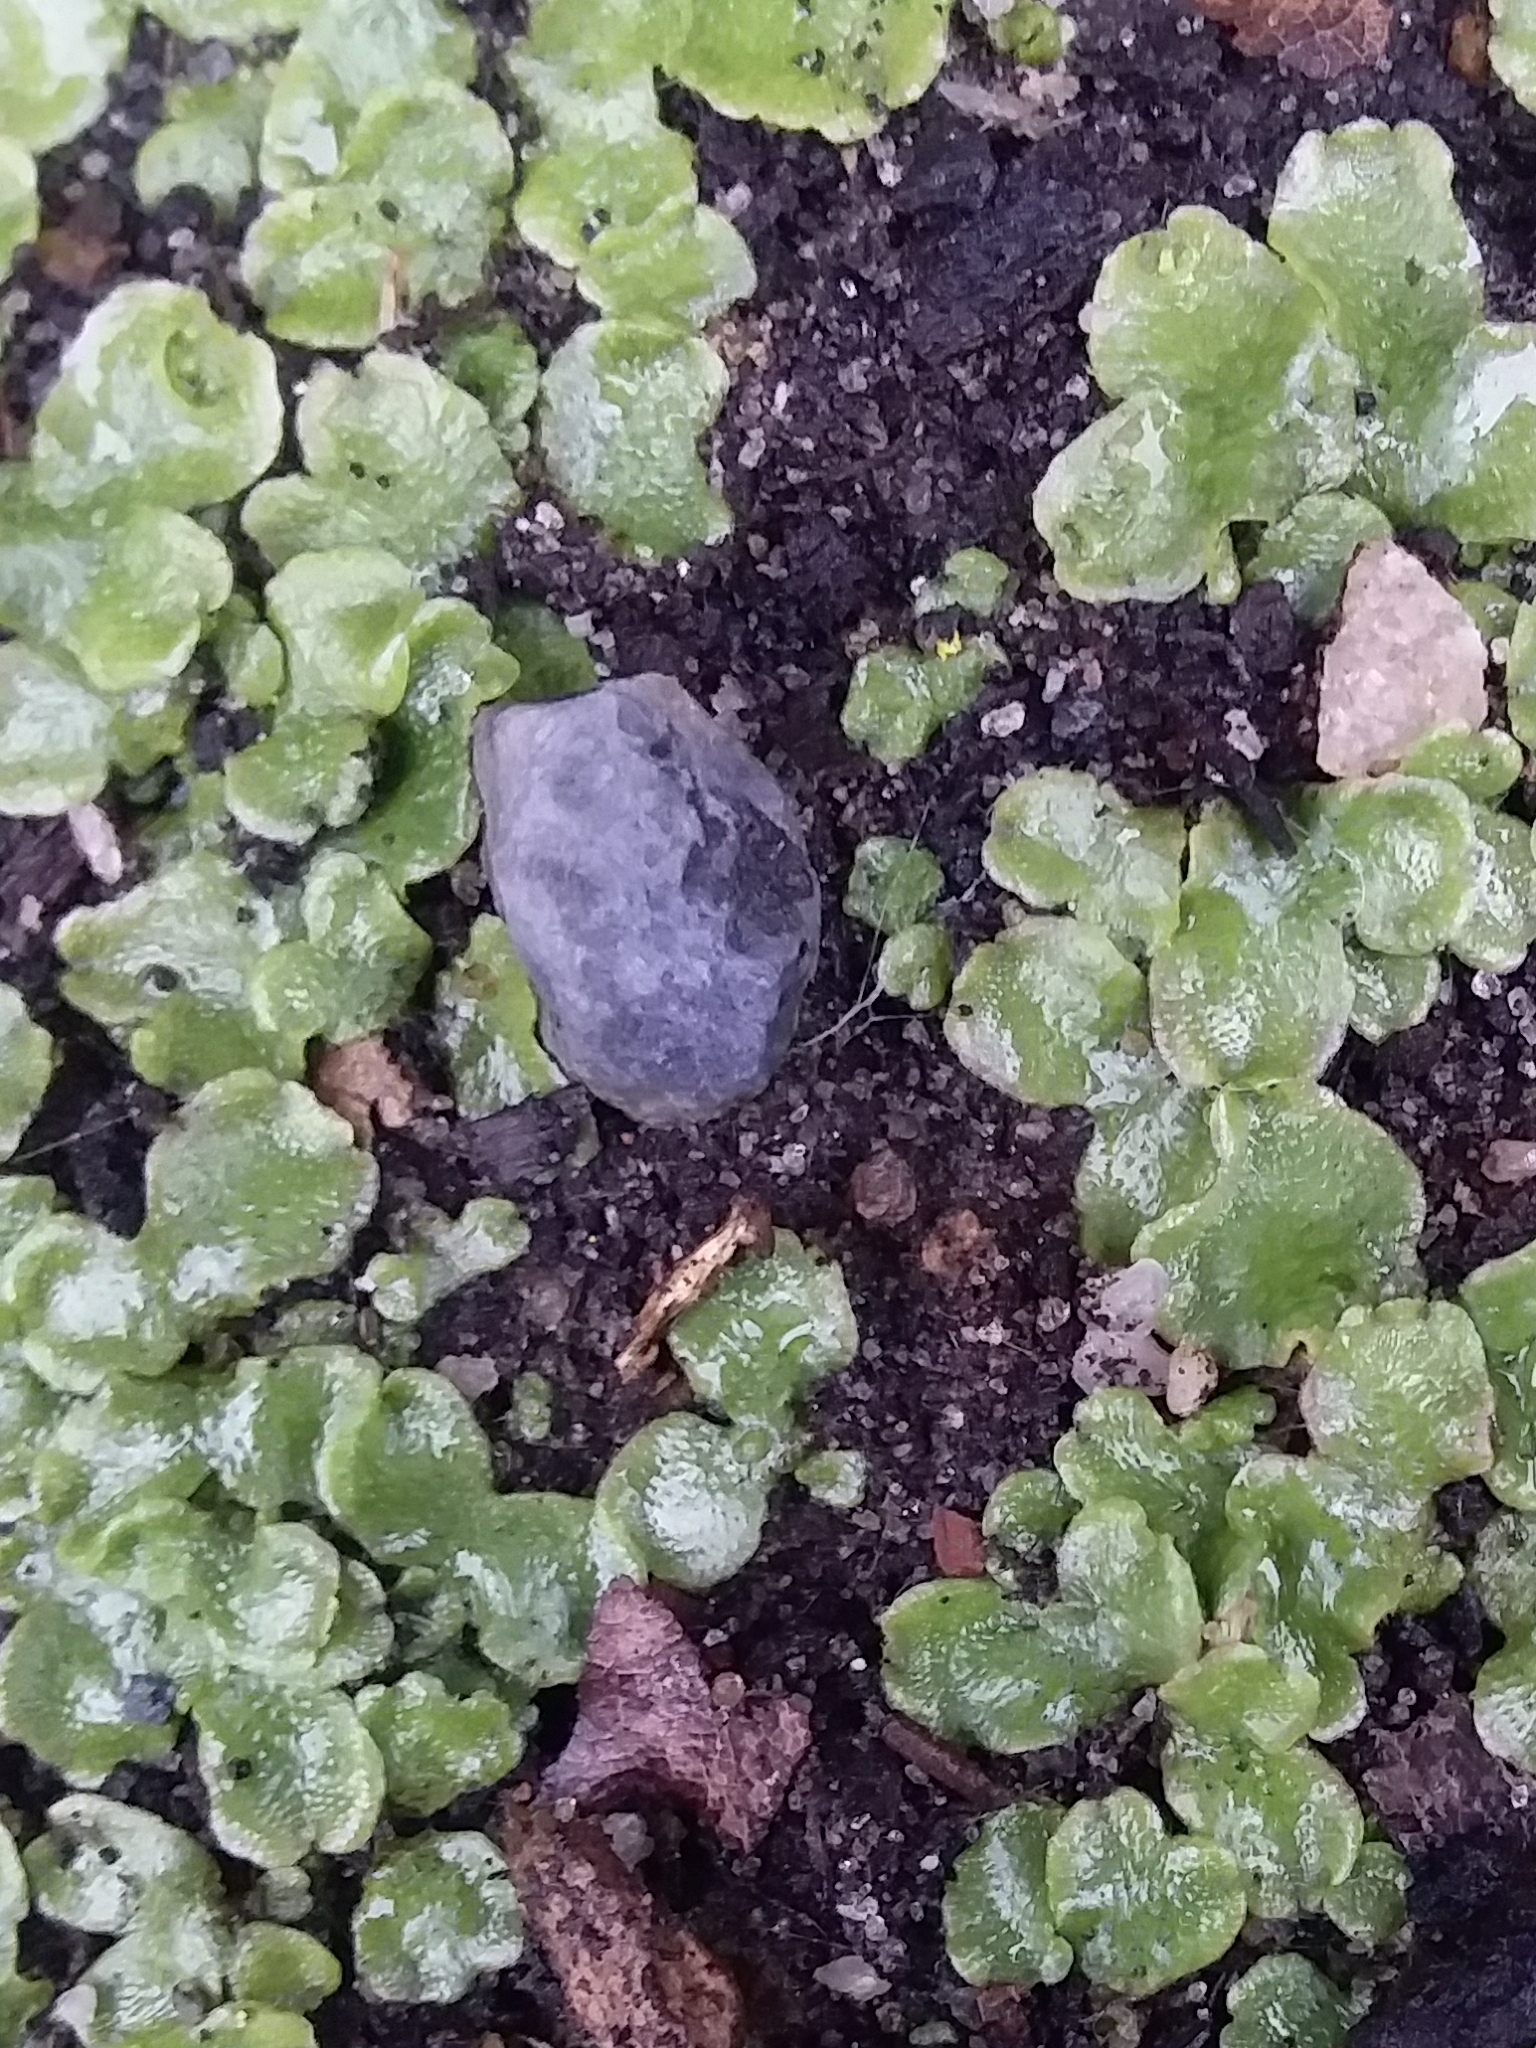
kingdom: Plantae
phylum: Marchantiophyta
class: Marchantiopsida
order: Lunulariales
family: Lunulariaceae
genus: Lunularia
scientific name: Lunularia cruciata
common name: Crescent-cup liverwort
